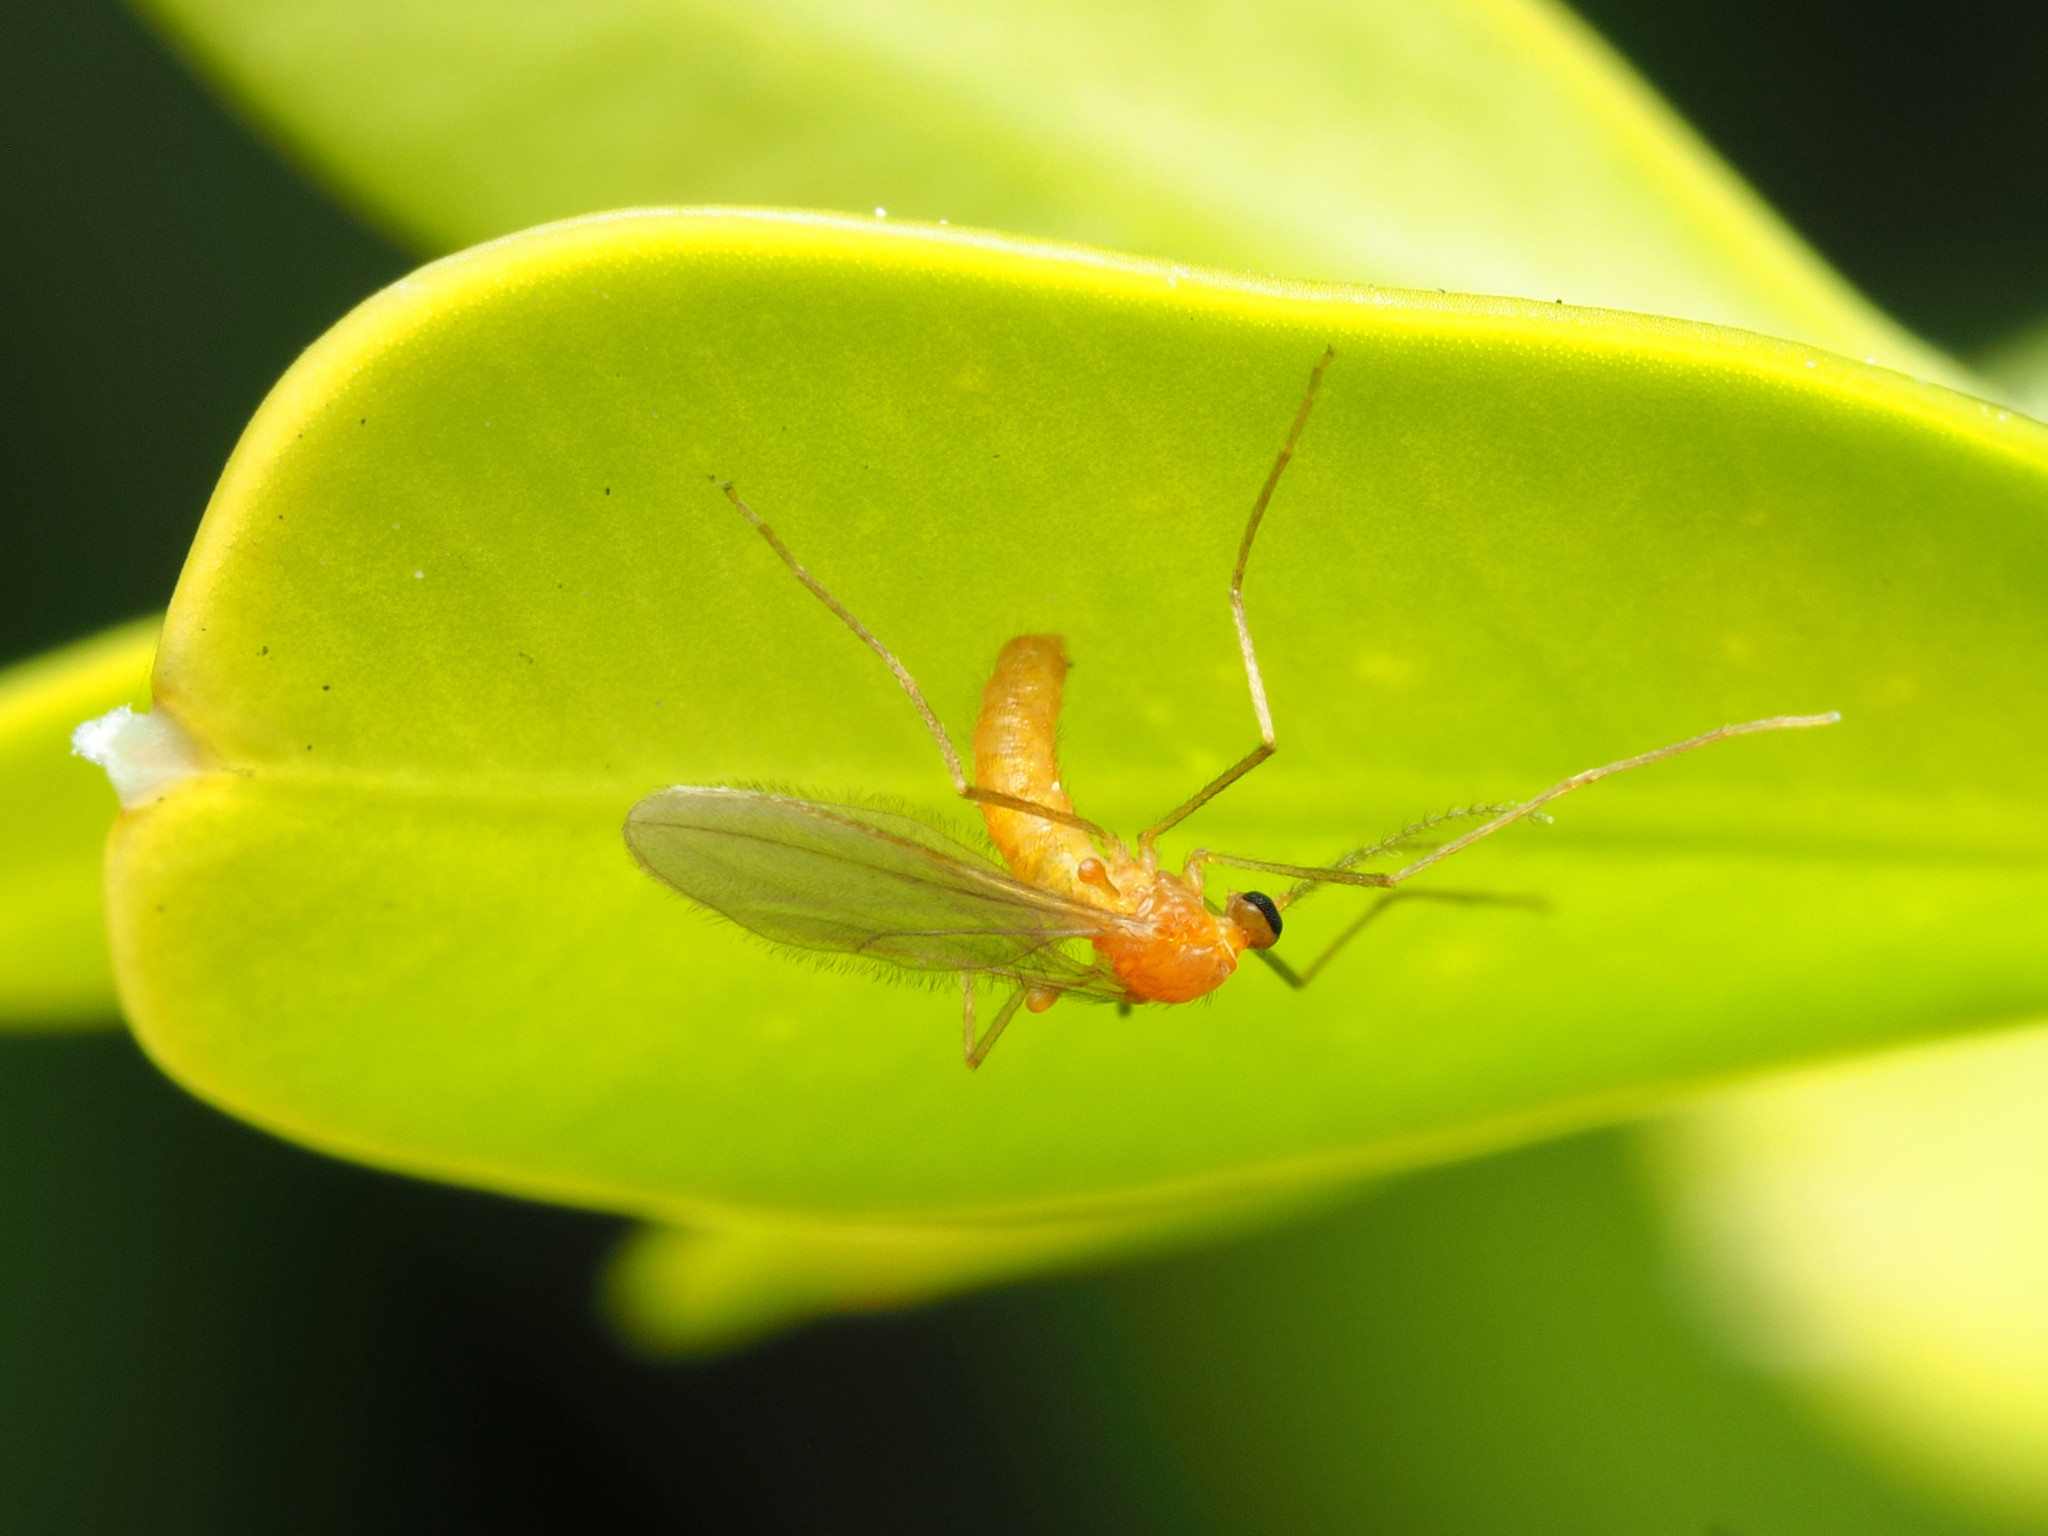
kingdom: Animalia
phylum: Arthropoda
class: Insecta
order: Diptera
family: Cecidomyiidae
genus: Monarthropalpus
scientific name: Monarthropalpus flavus
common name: Boxwood leafminer
